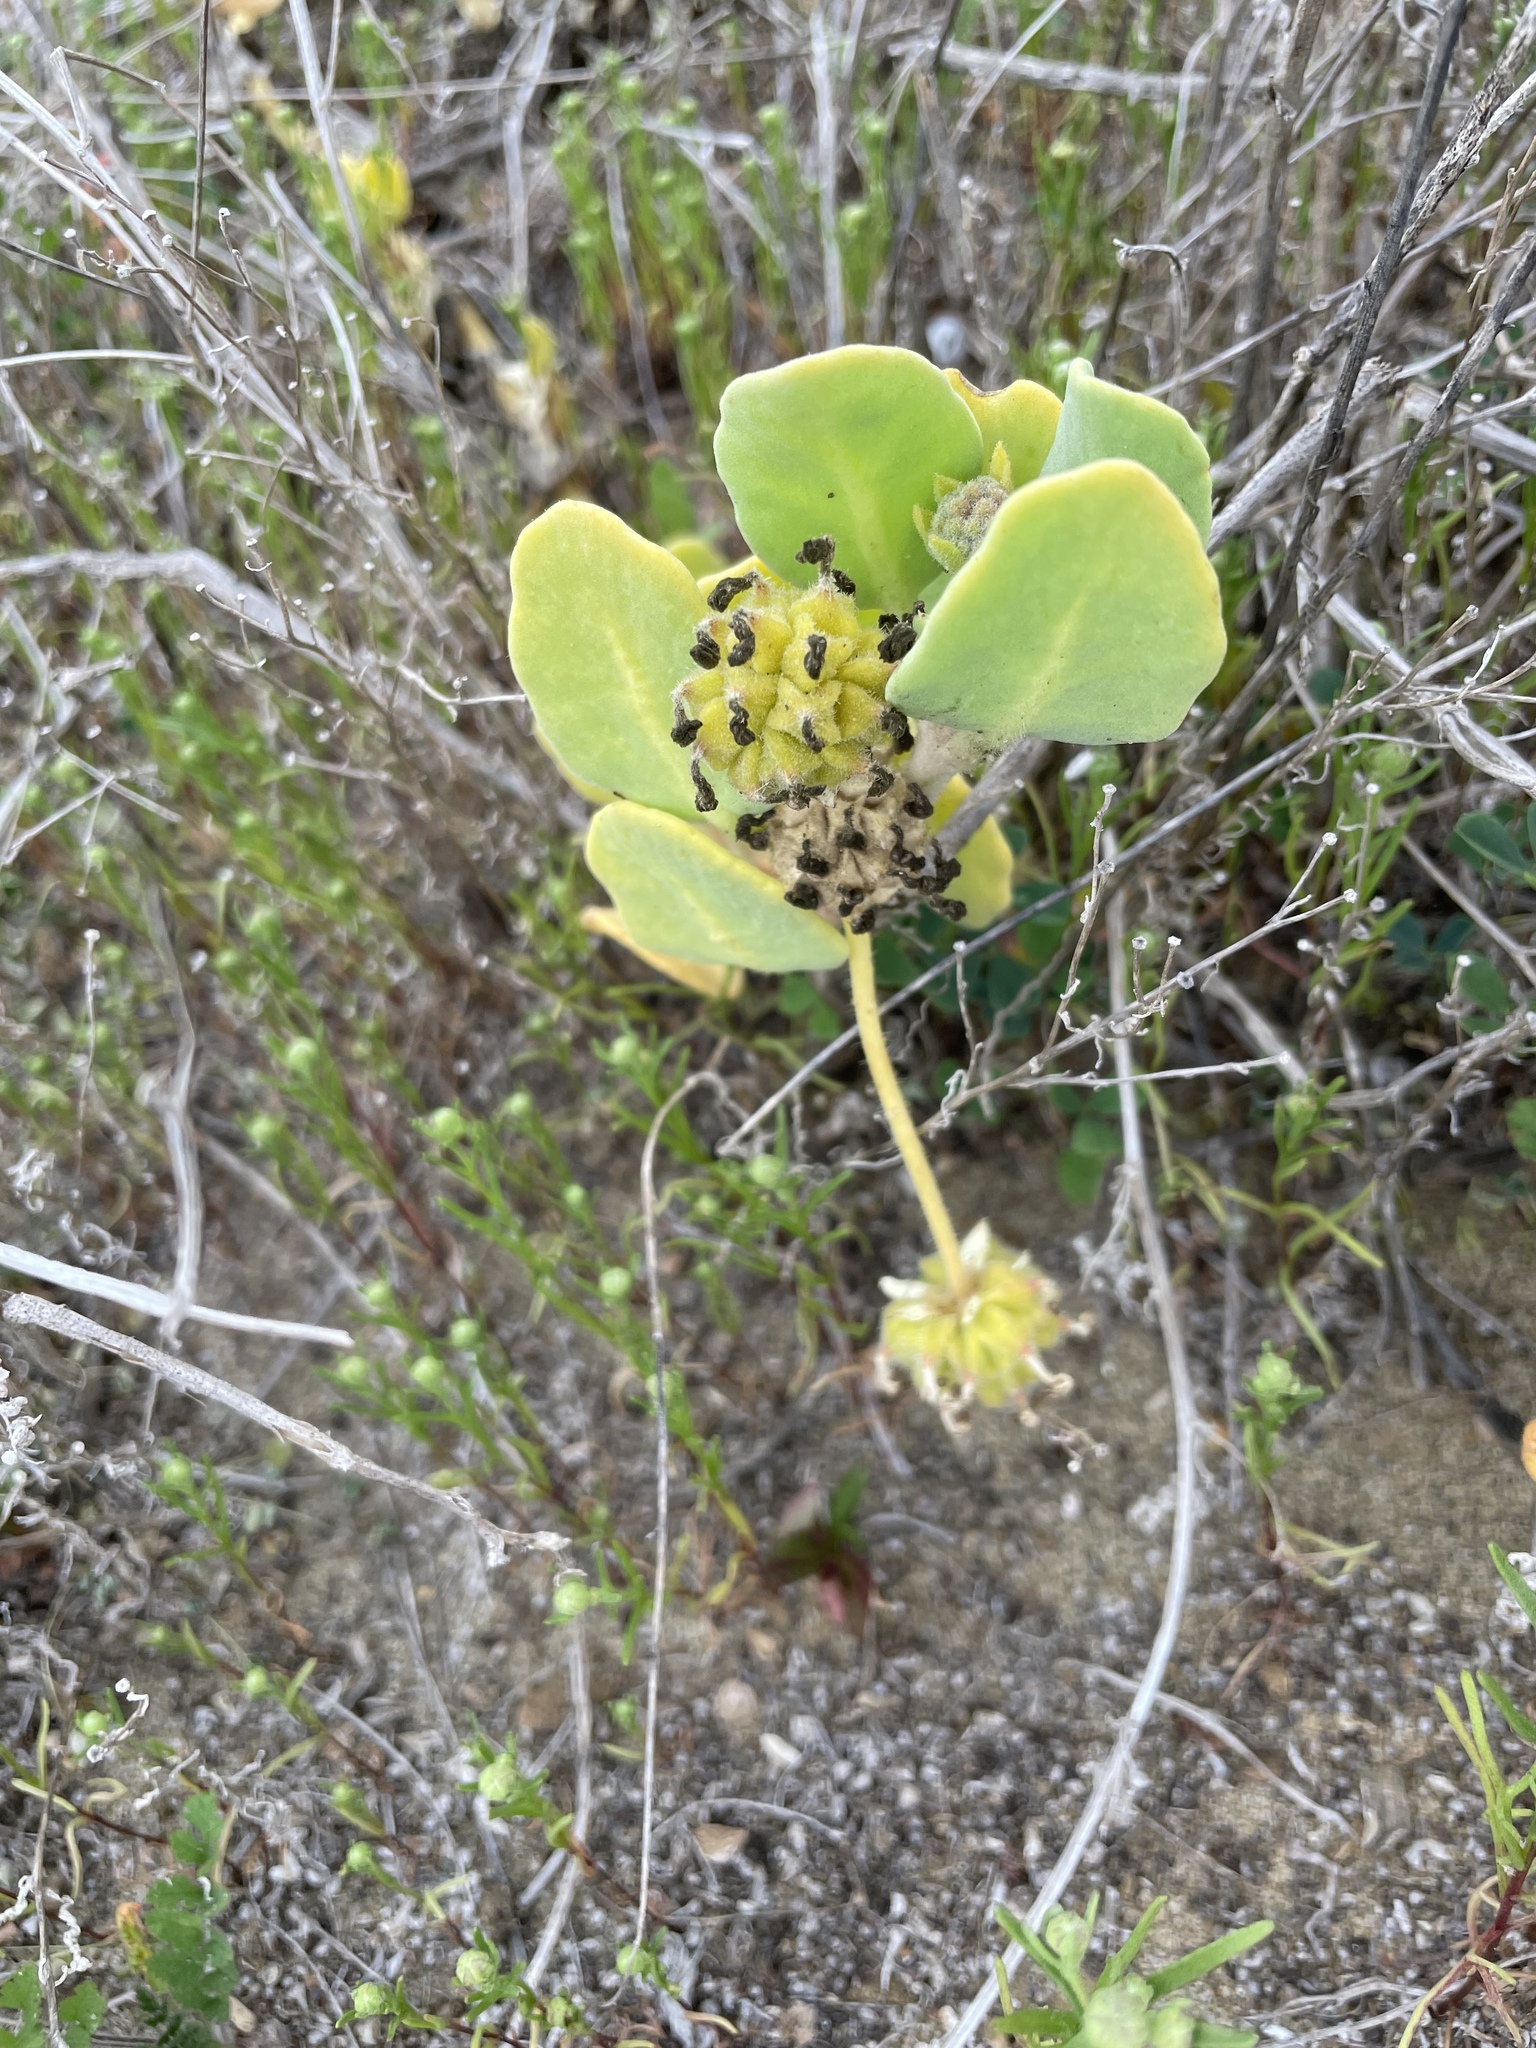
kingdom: Plantae
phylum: Tracheophyta
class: Magnoliopsida
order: Caryophyllales
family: Nyctaginaceae
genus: Abronia
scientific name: Abronia maritima
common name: Red sand-verbena
